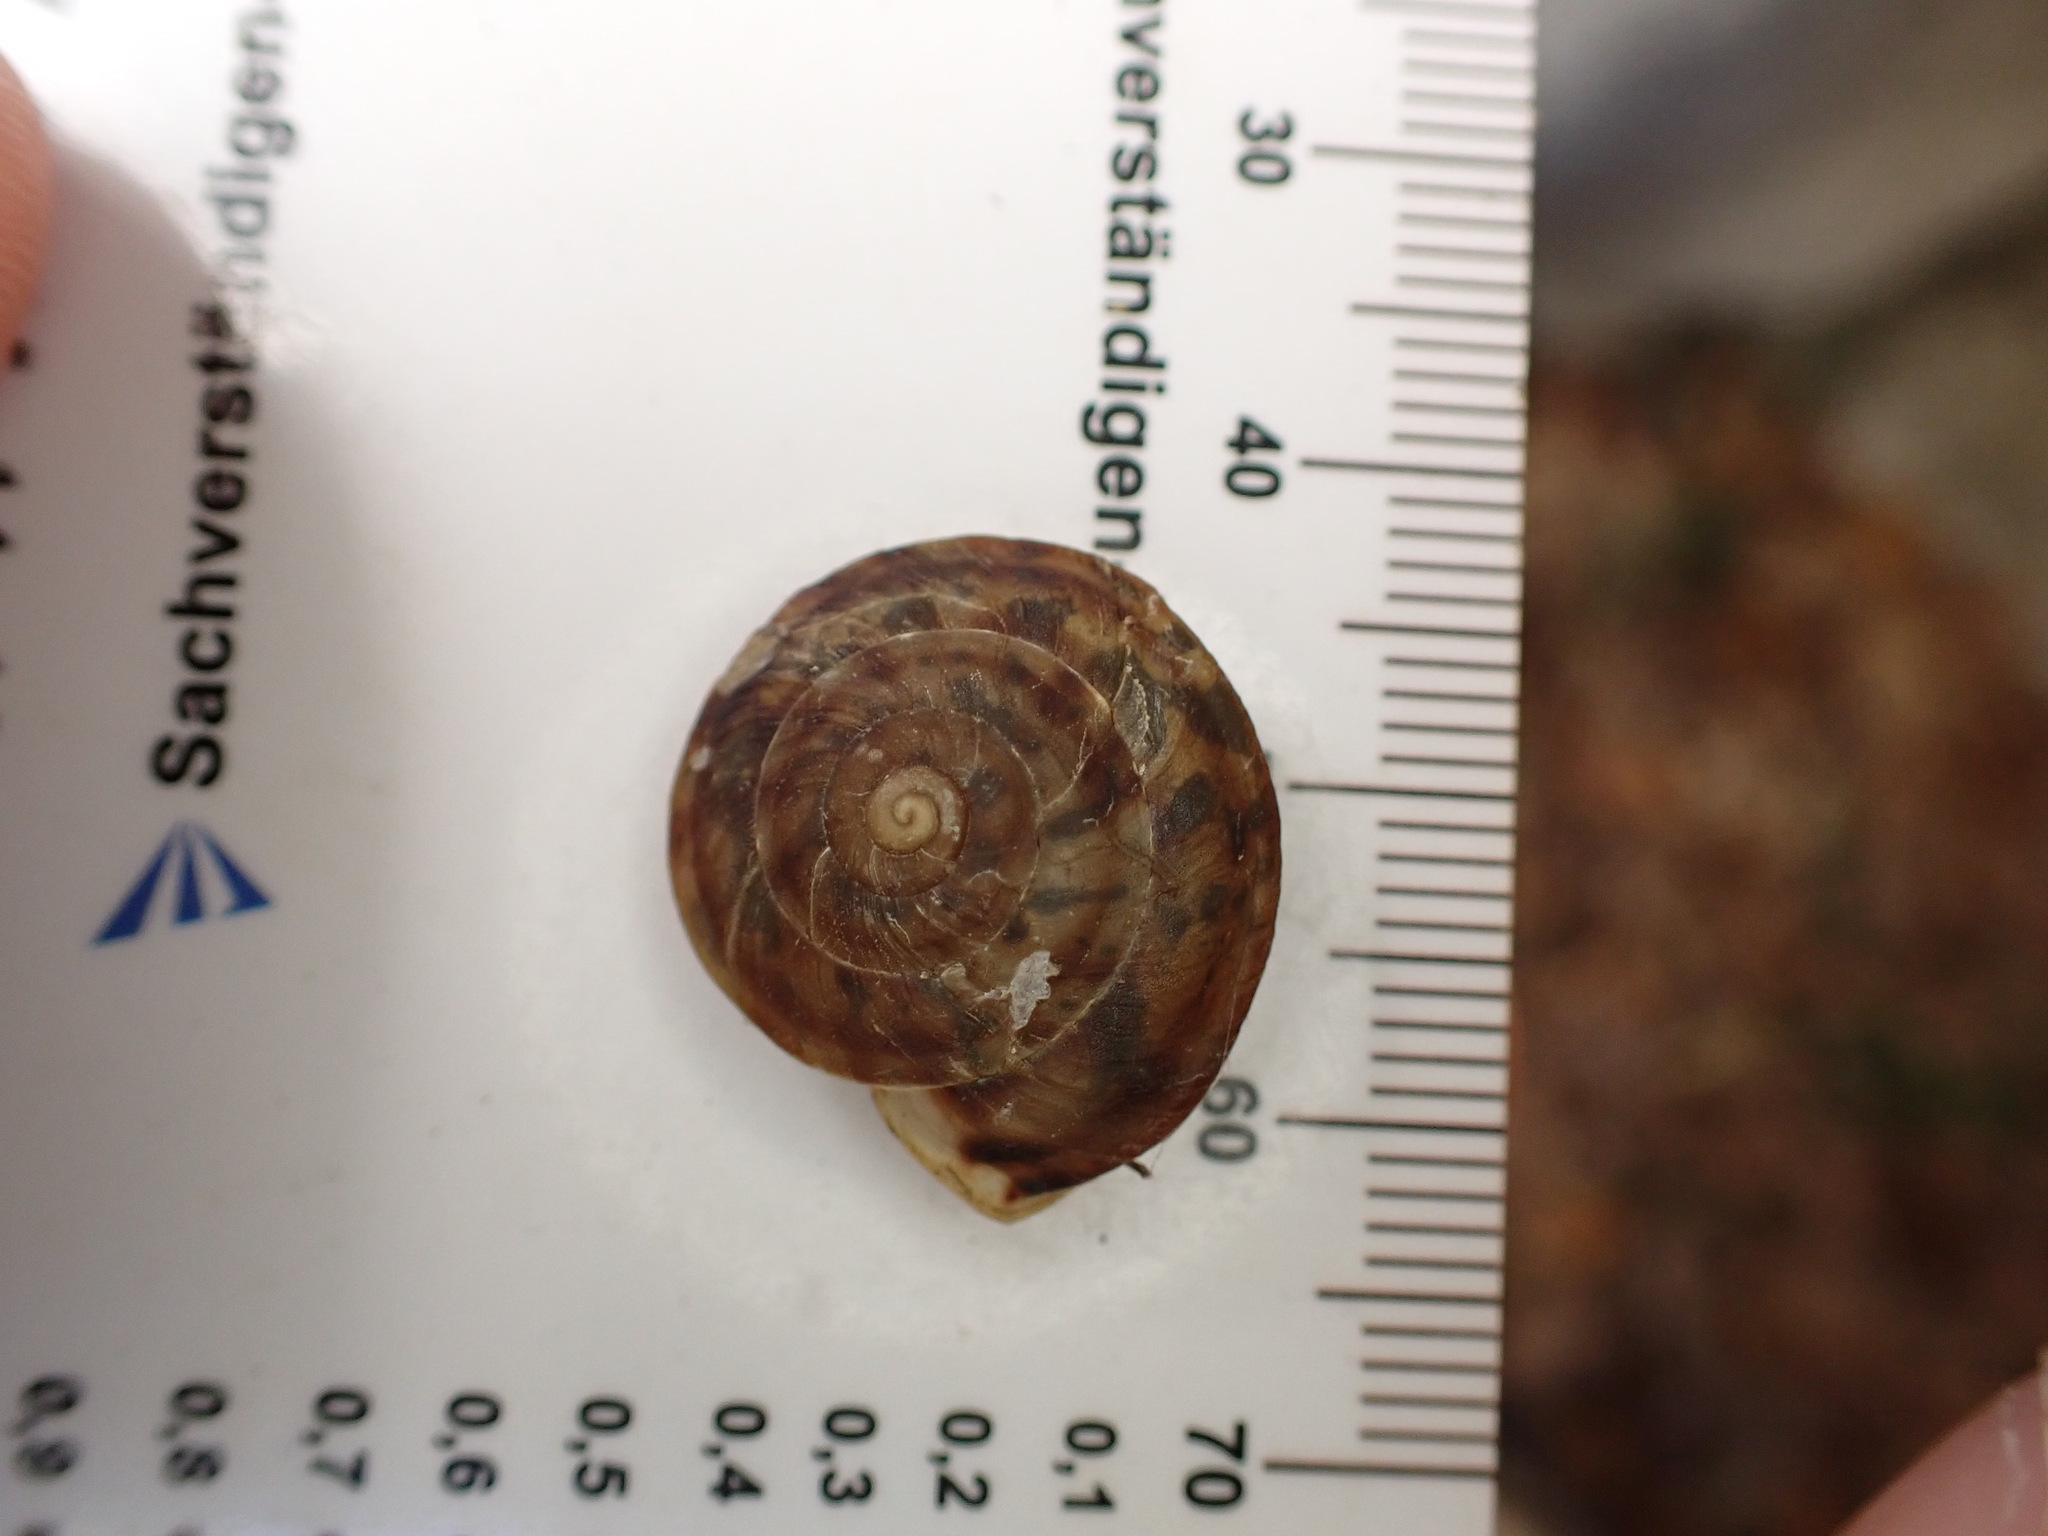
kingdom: Animalia
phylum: Mollusca
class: Gastropoda
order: Stylommatophora
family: Helicidae
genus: Helicigona
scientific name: Helicigona lapicida
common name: Lapidary snail
